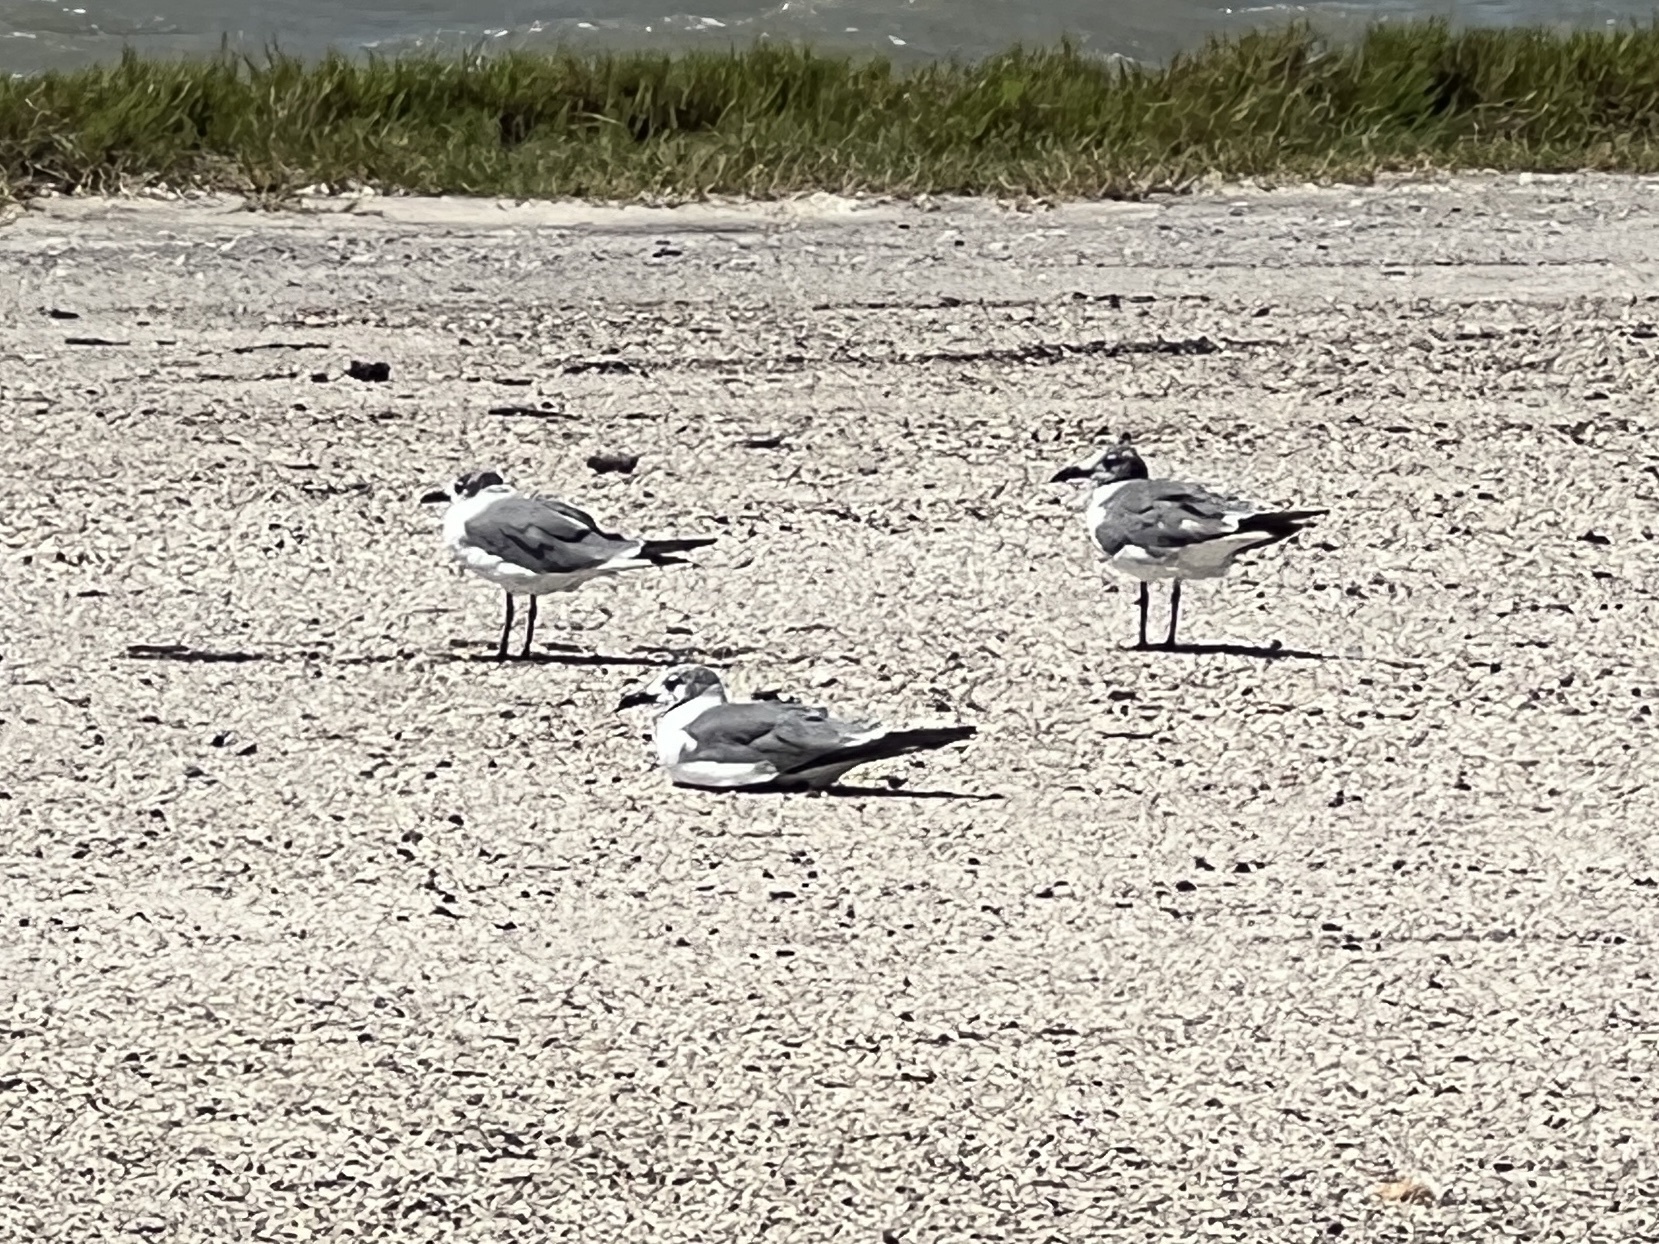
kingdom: Animalia
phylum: Chordata
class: Aves
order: Charadriiformes
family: Laridae
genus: Leucophaeus
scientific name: Leucophaeus atricilla
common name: Laughing gull
